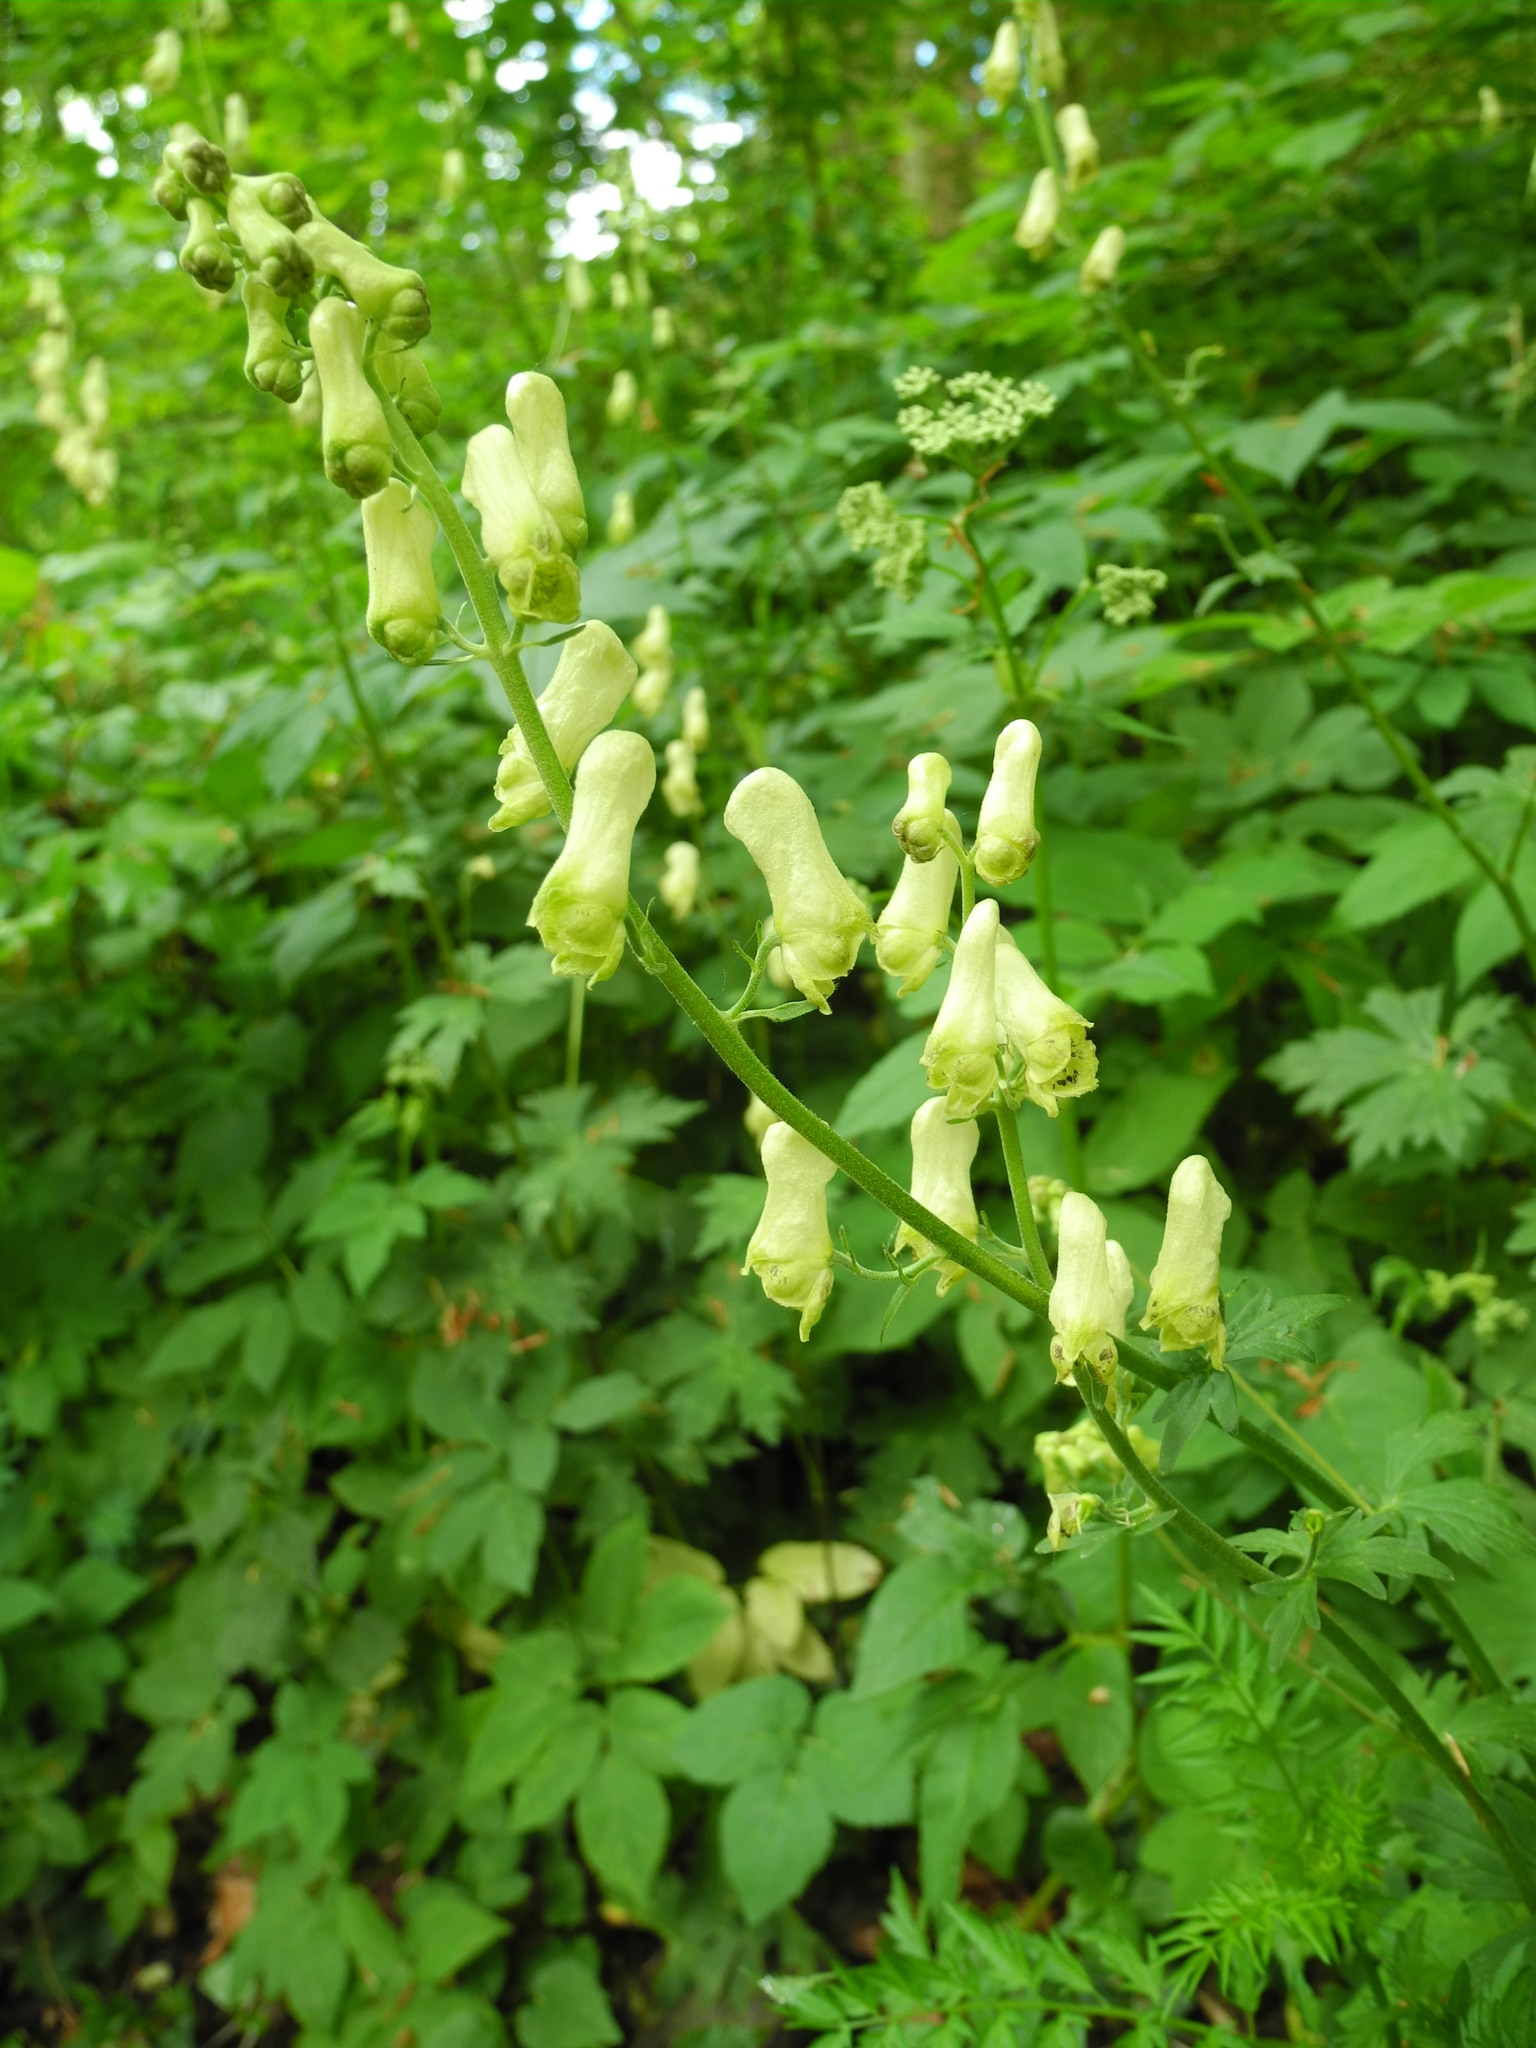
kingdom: Plantae
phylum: Tracheophyta
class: Magnoliopsida
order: Ranunculales
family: Ranunculaceae
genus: Aconitum
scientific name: Aconitum lycoctonum
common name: Wolf's-bane
